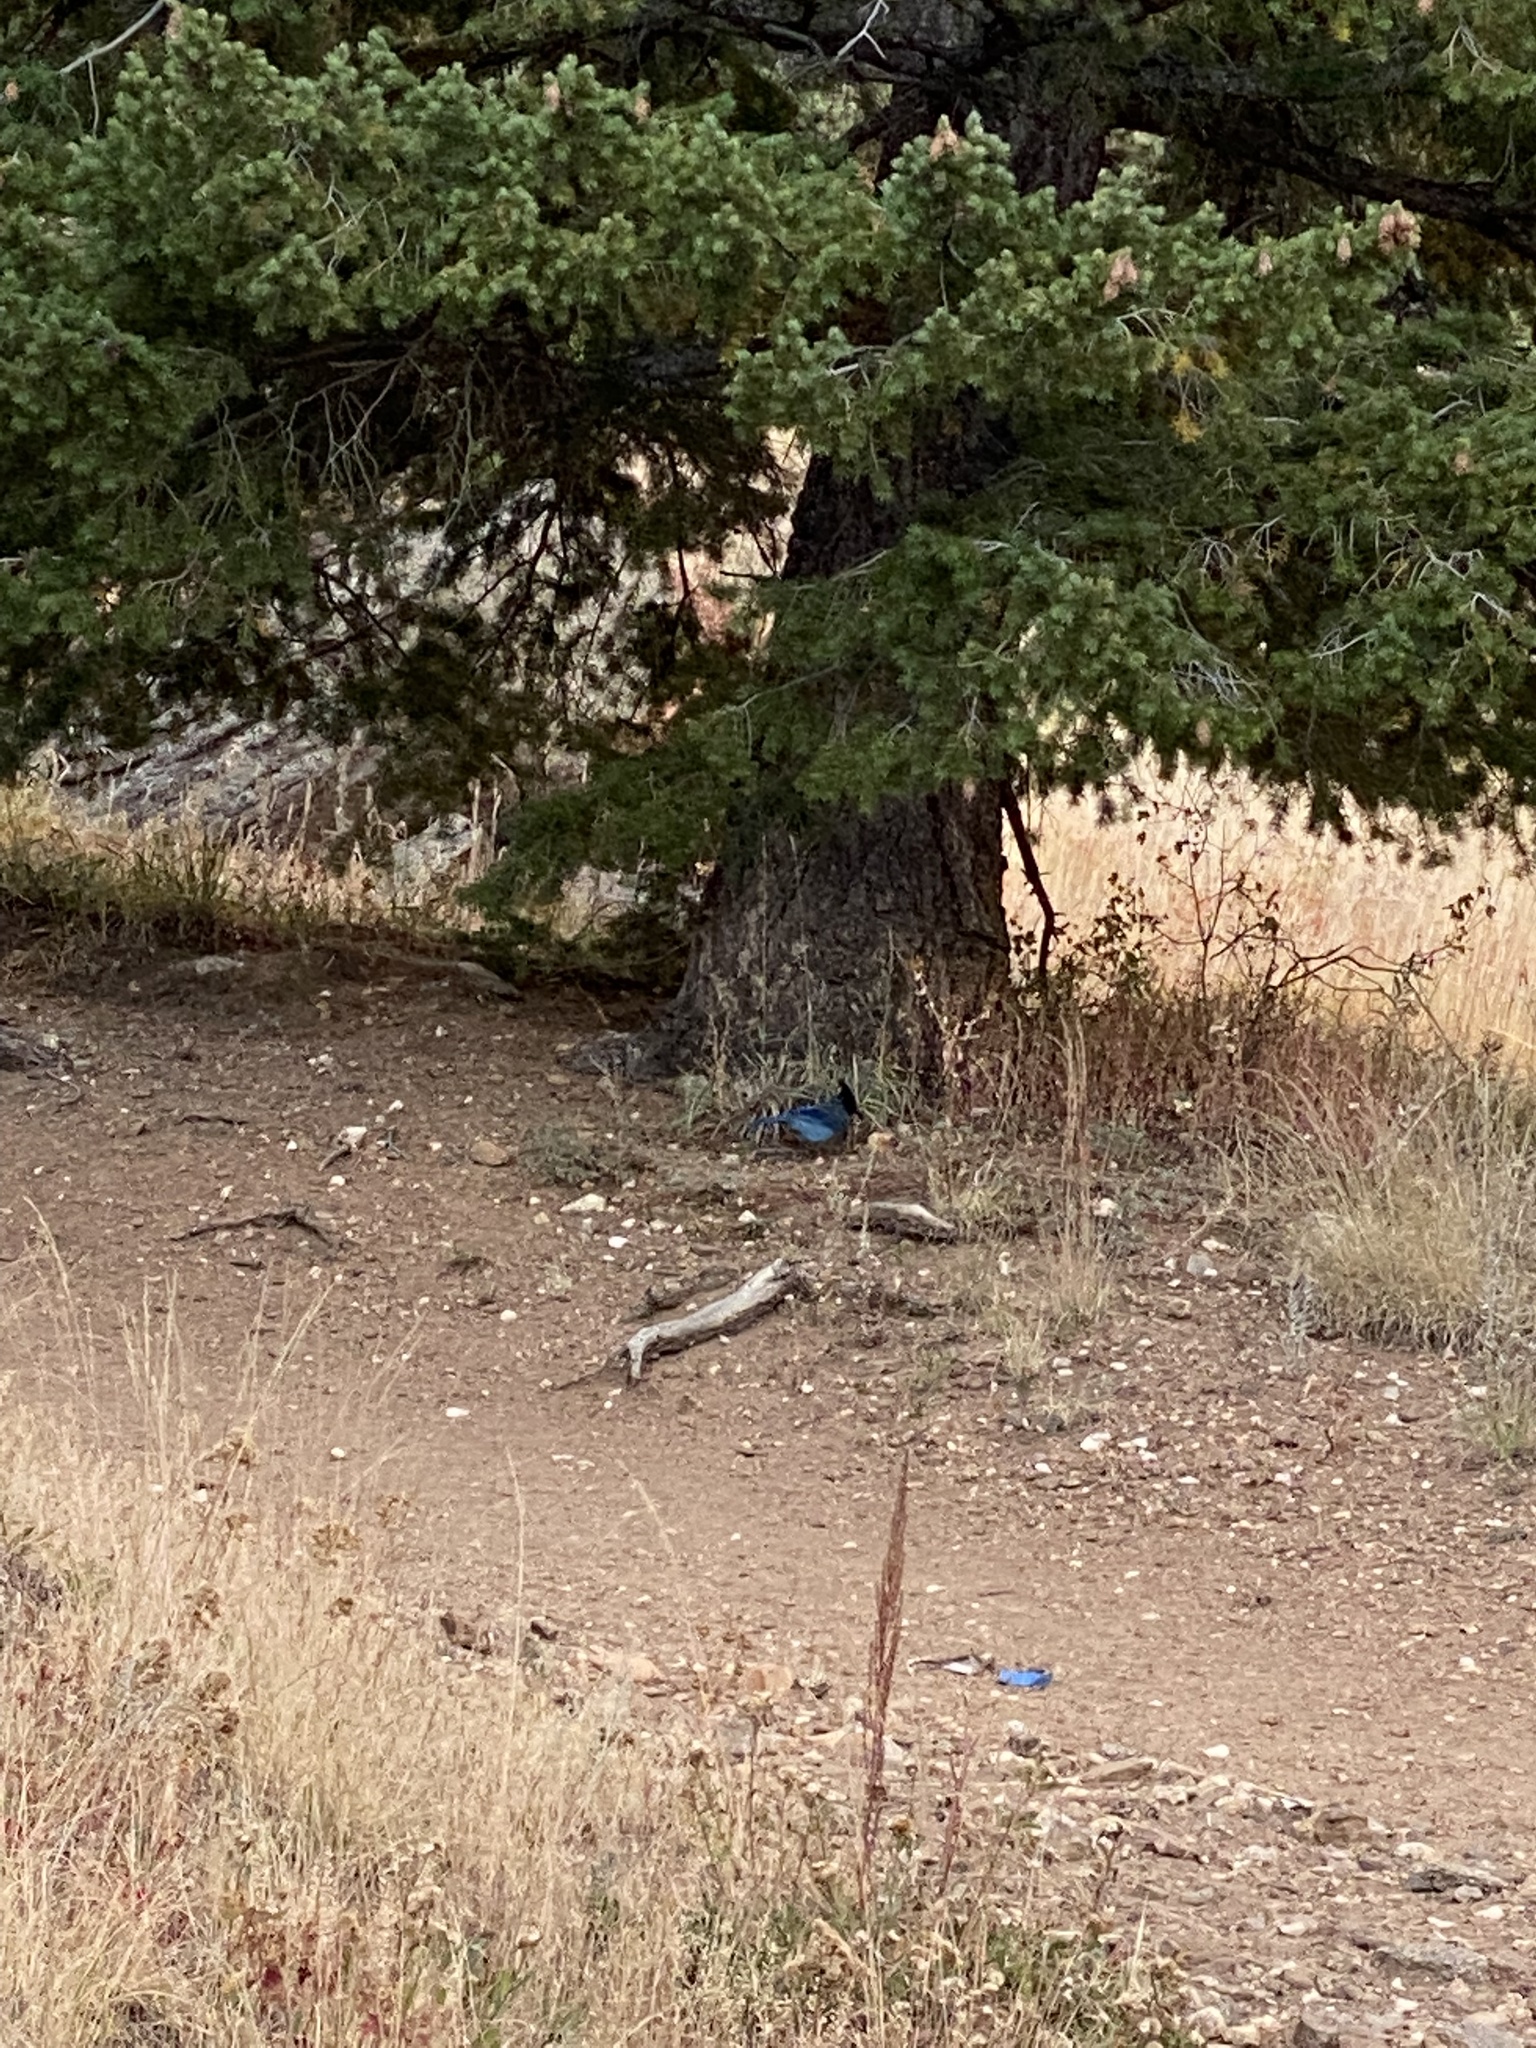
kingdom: Animalia
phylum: Chordata
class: Aves
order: Passeriformes
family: Corvidae
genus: Cyanocitta
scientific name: Cyanocitta stelleri
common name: Steller's jay
